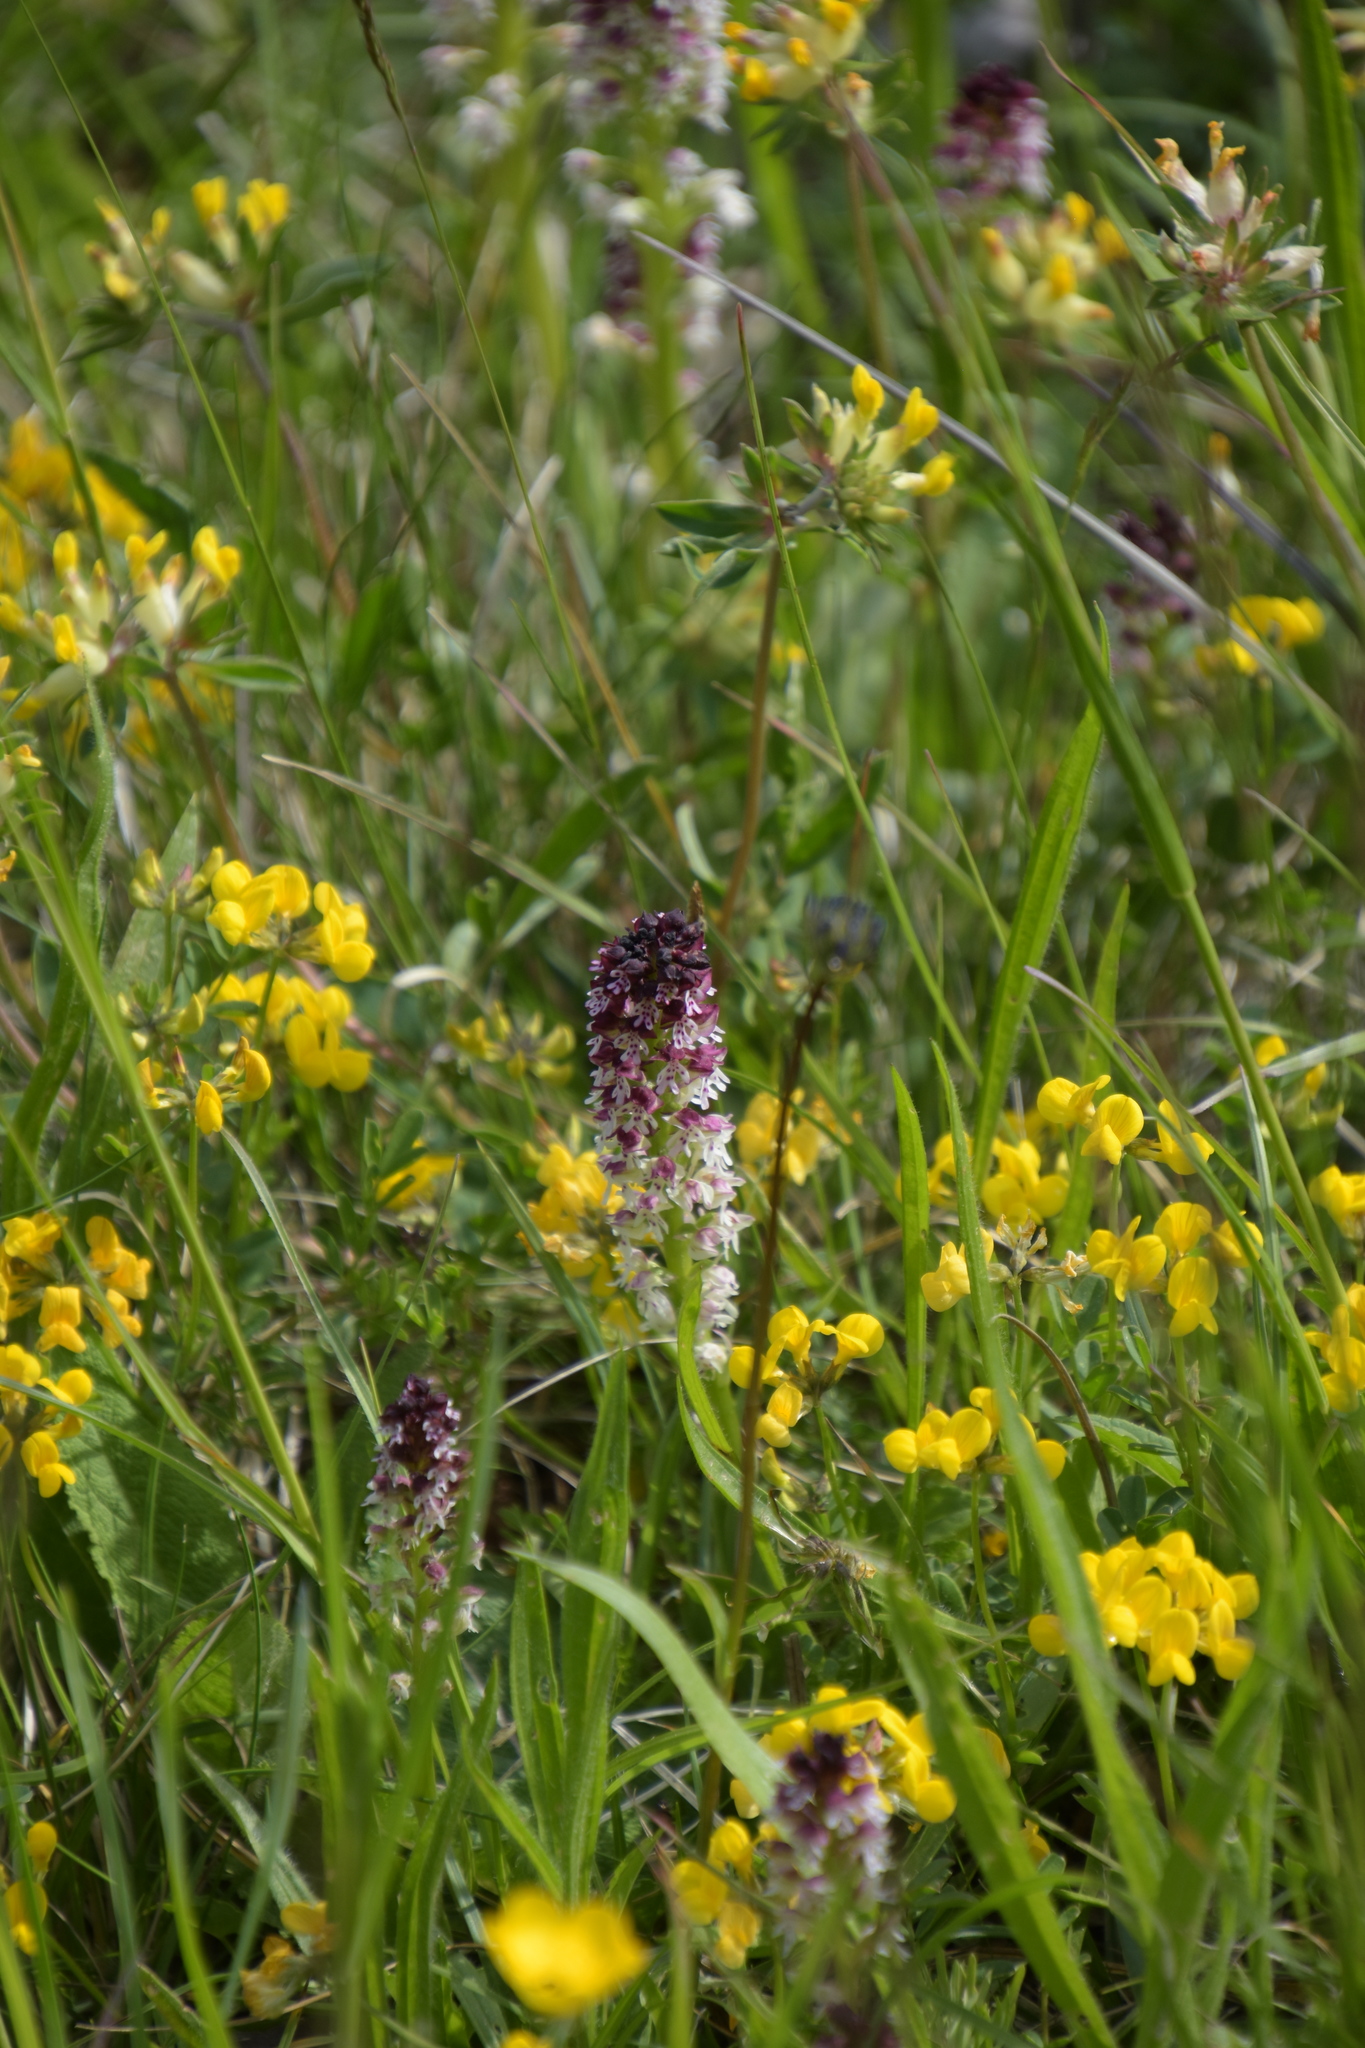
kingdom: Plantae
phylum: Tracheophyta
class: Liliopsida
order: Asparagales
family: Orchidaceae
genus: Neotinea
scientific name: Neotinea ustulata
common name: Burnt orchid
